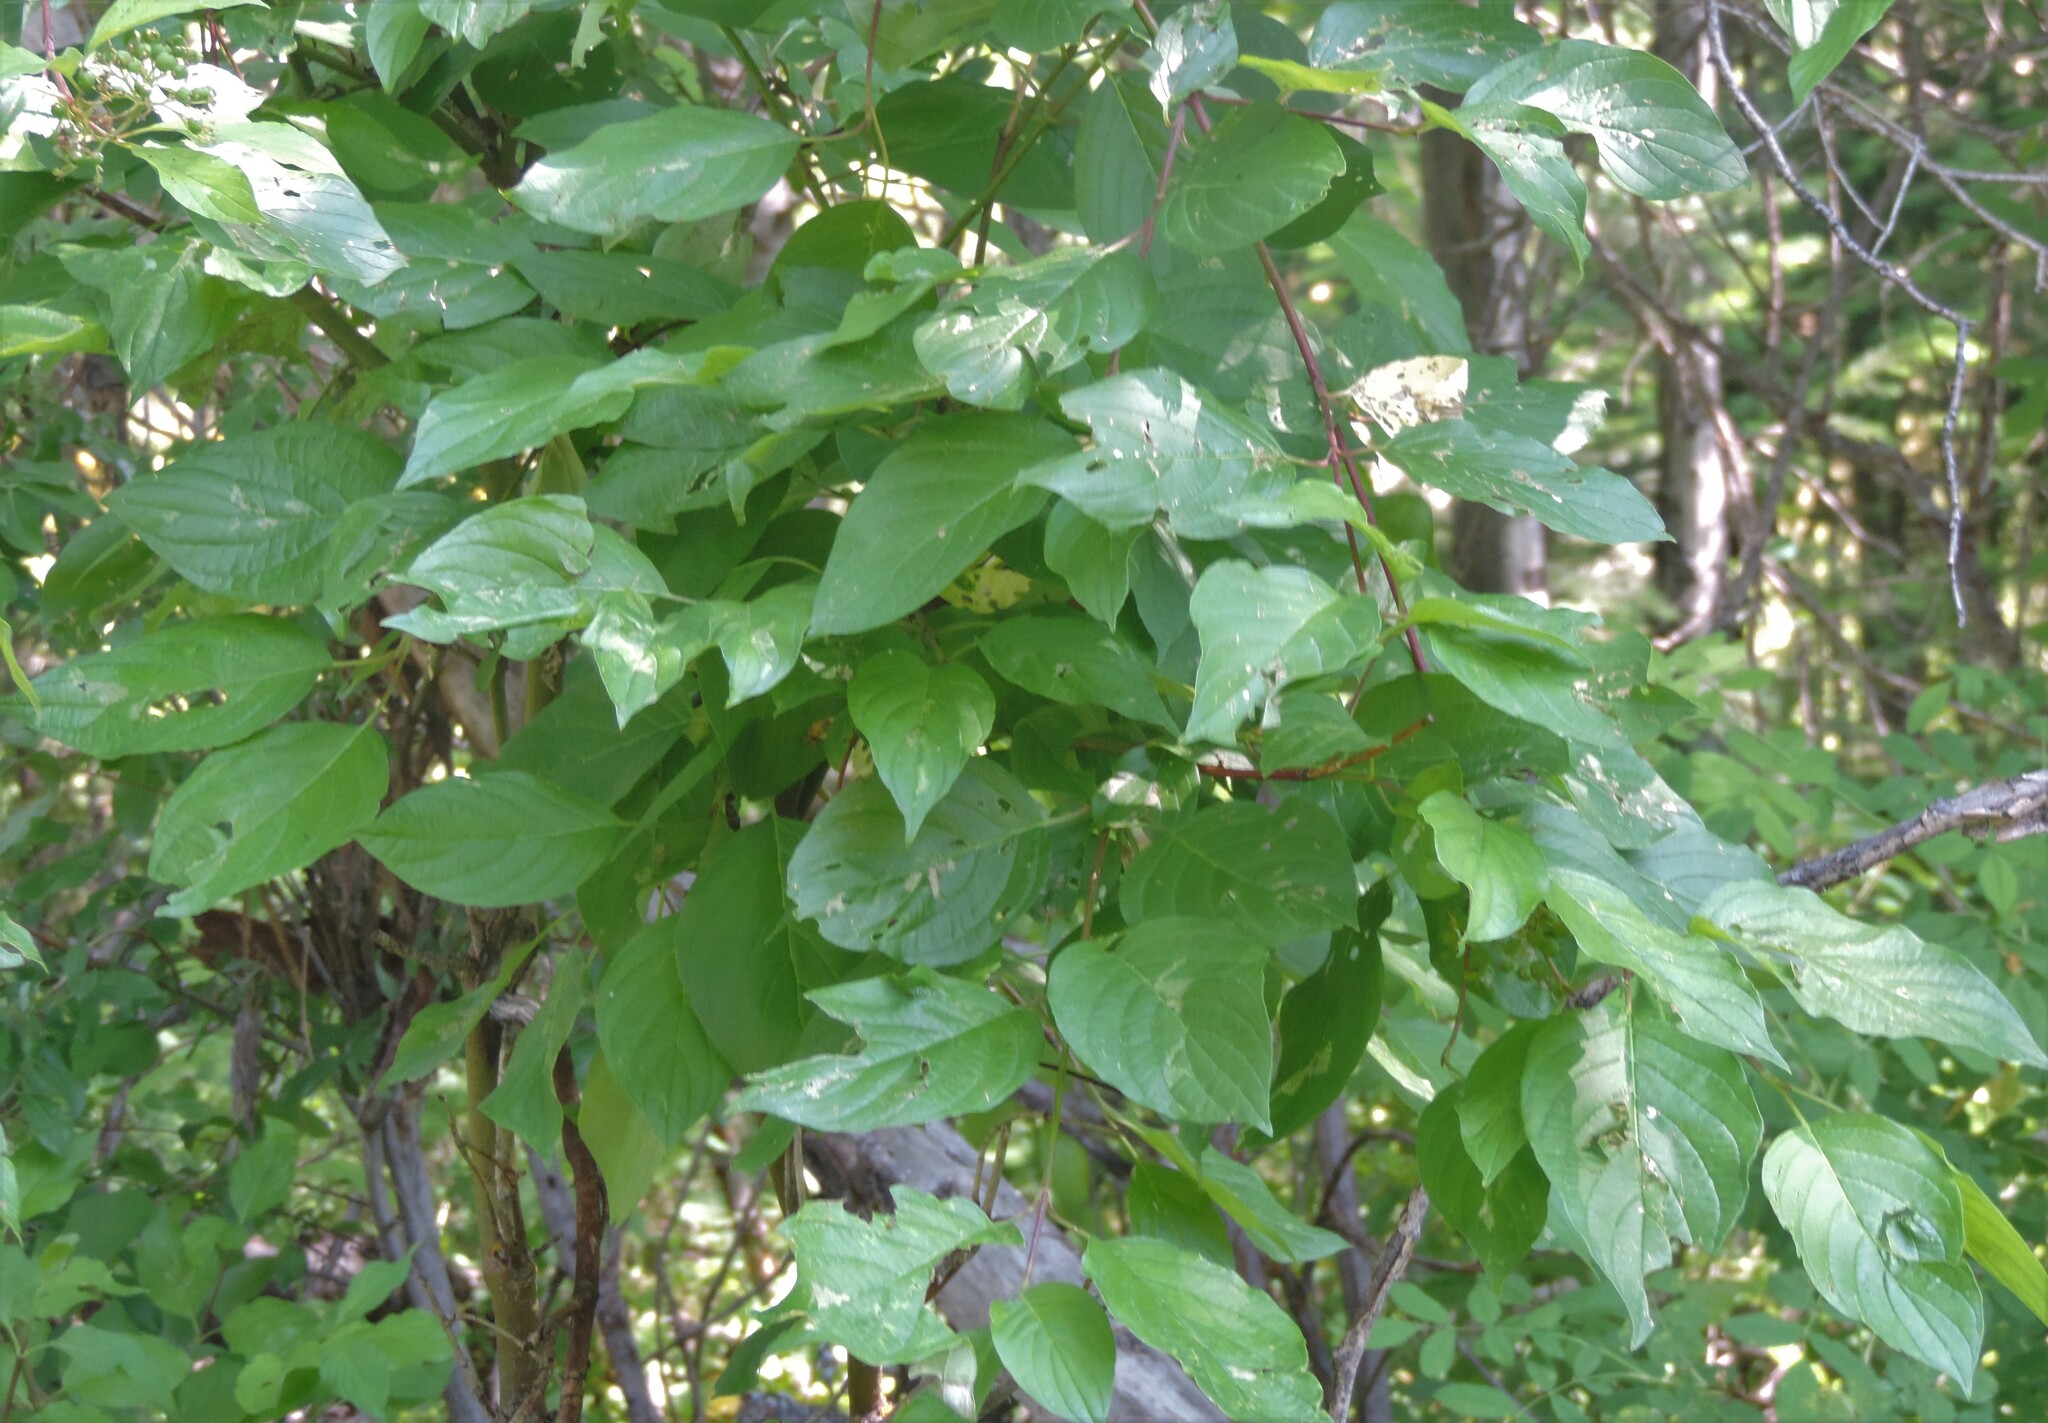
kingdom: Plantae
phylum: Tracheophyta
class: Magnoliopsida
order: Cornales
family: Cornaceae
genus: Cornus
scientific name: Cornus sericea
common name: Red-osier dogwood
